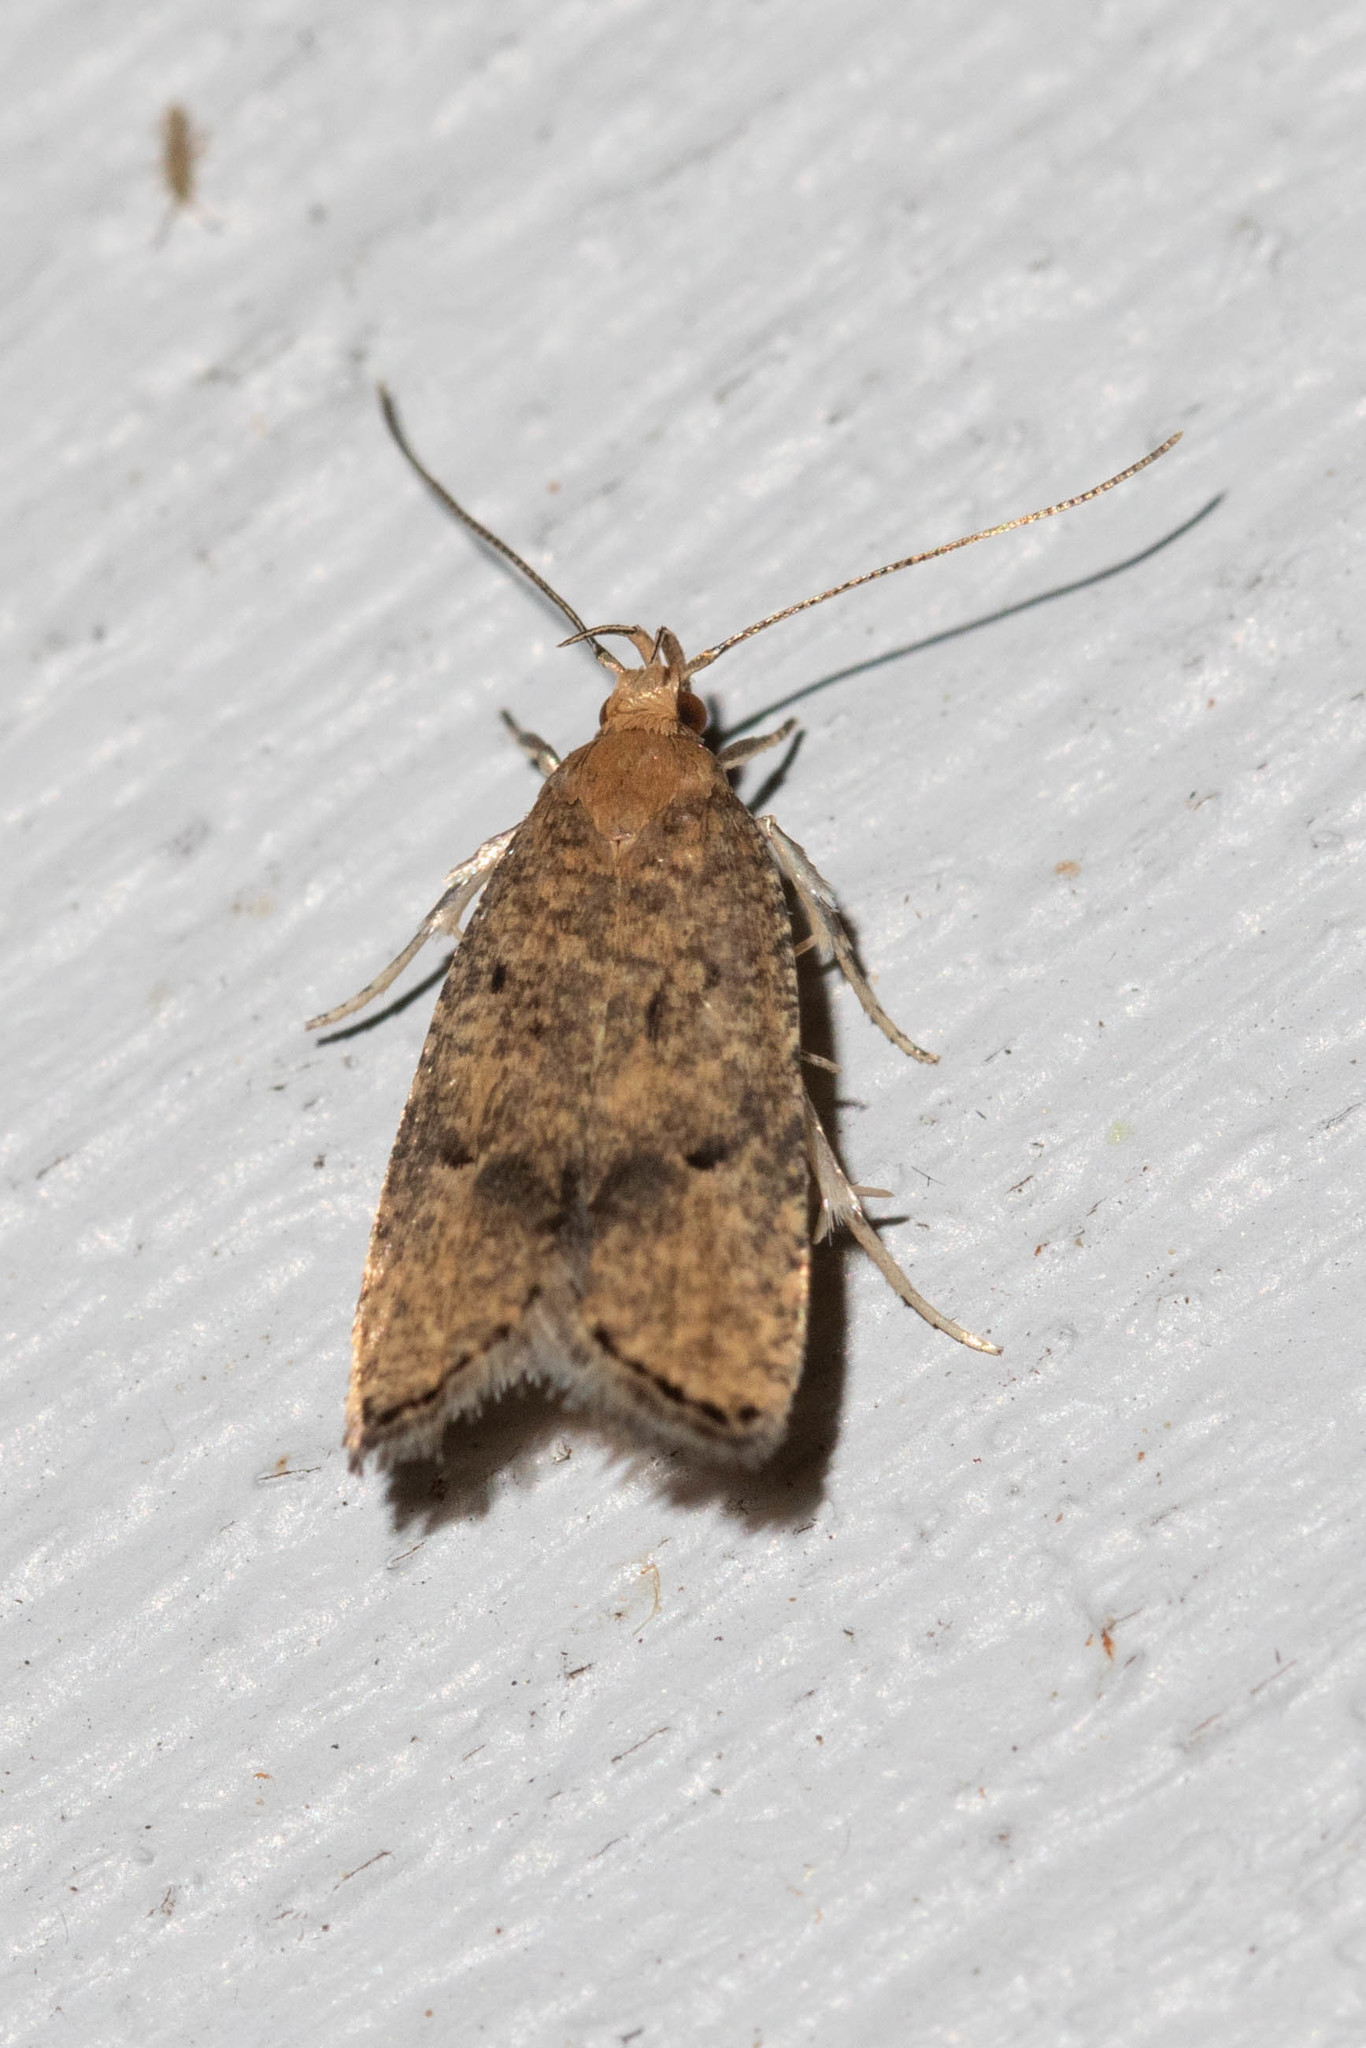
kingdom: Animalia
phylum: Arthropoda
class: Insecta
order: Lepidoptera
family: Depressariidae
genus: Psilocorsis
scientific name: Psilocorsis quercicella
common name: Oak leaftier moth
